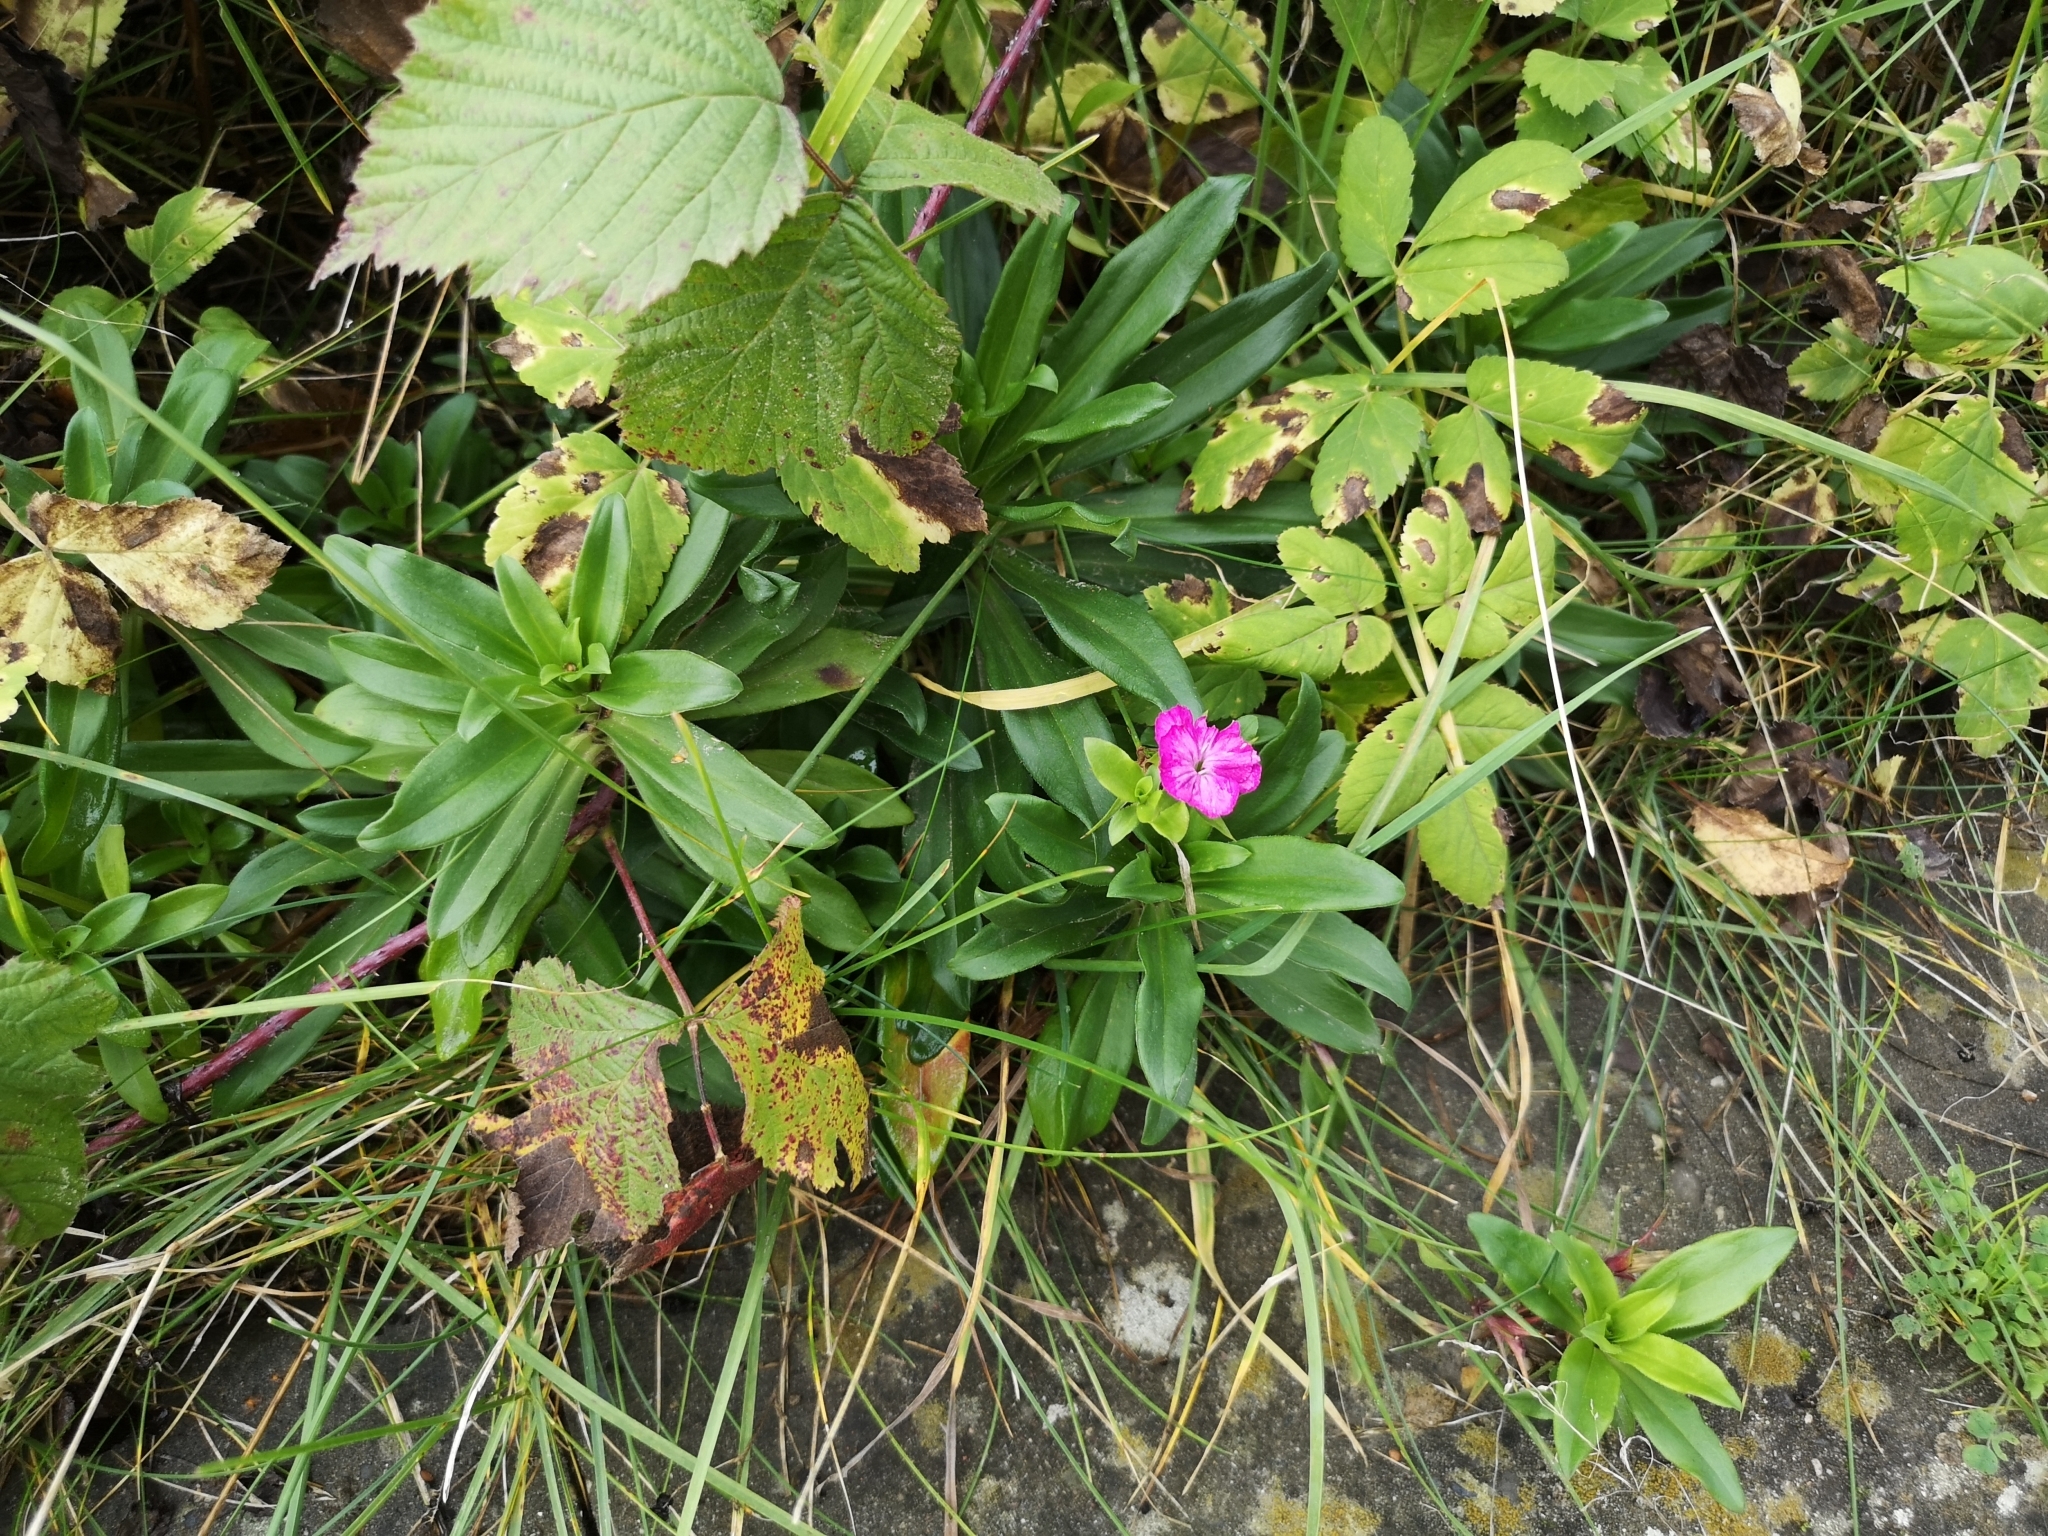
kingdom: Plantae
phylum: Tracheophyta
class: Magnoliopsida
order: Caryophyllales
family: Caryophyllaceae
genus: Dianthus
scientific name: Dianthus barbatus
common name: Sweet-william
